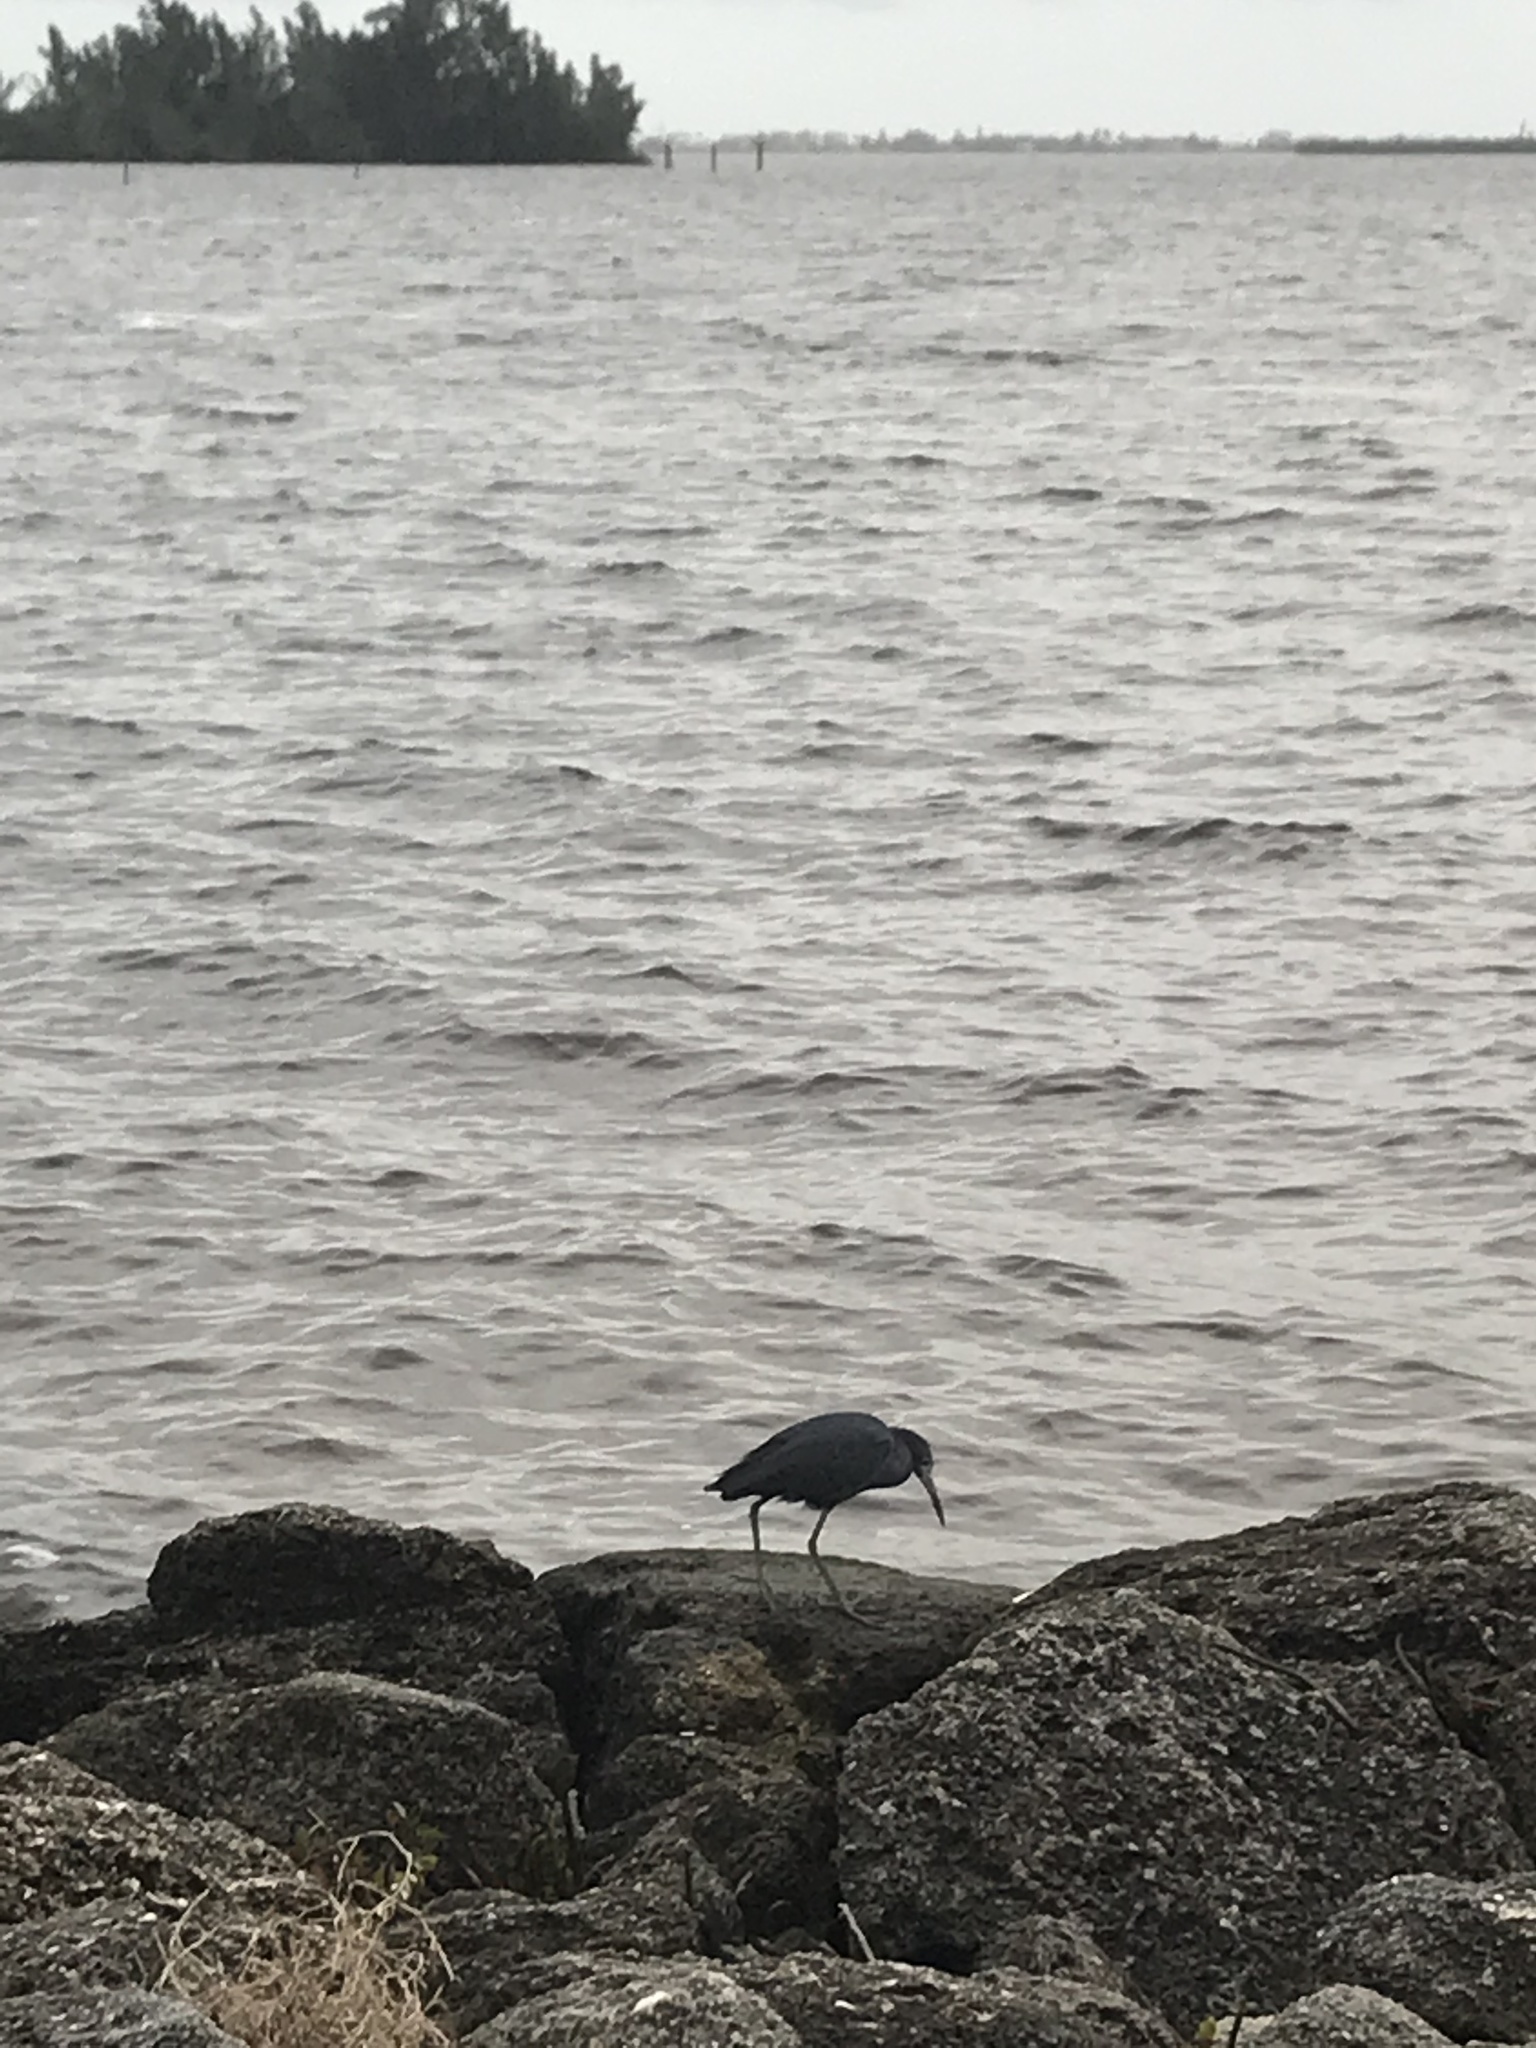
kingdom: Animalia
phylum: Chordata
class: Aves
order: Pelecaniformes
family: Ardeidae
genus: Egretta
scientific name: Egretta caerulea
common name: Little blue heron
